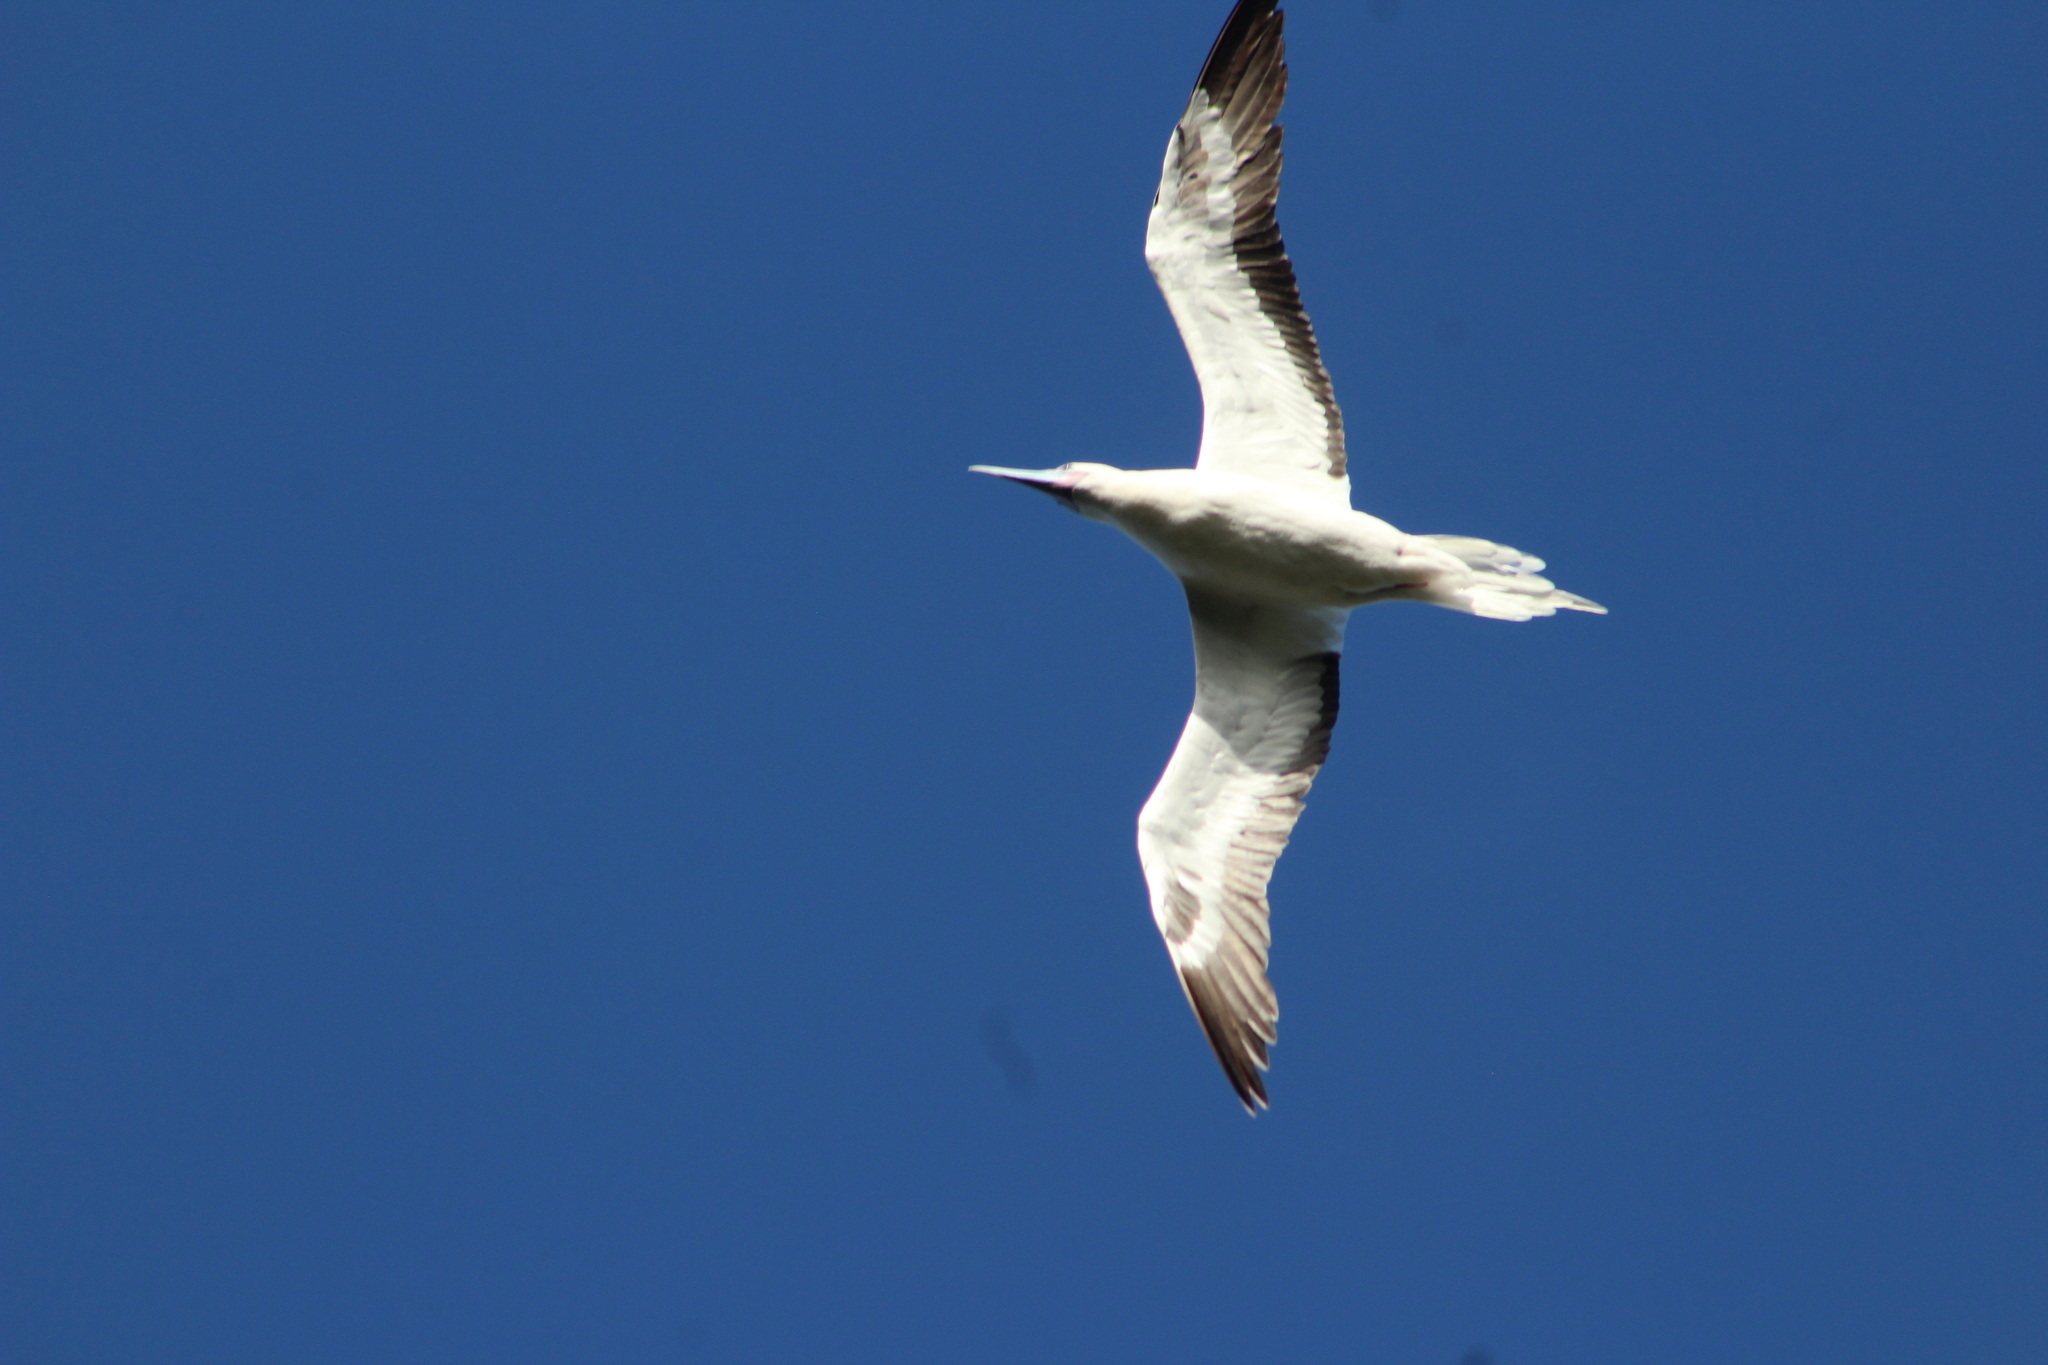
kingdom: Animalia
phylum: Chordata
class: Aves
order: Suliformes
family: Sulidae
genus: Sula
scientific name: Sula sula
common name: Red-footed booby
